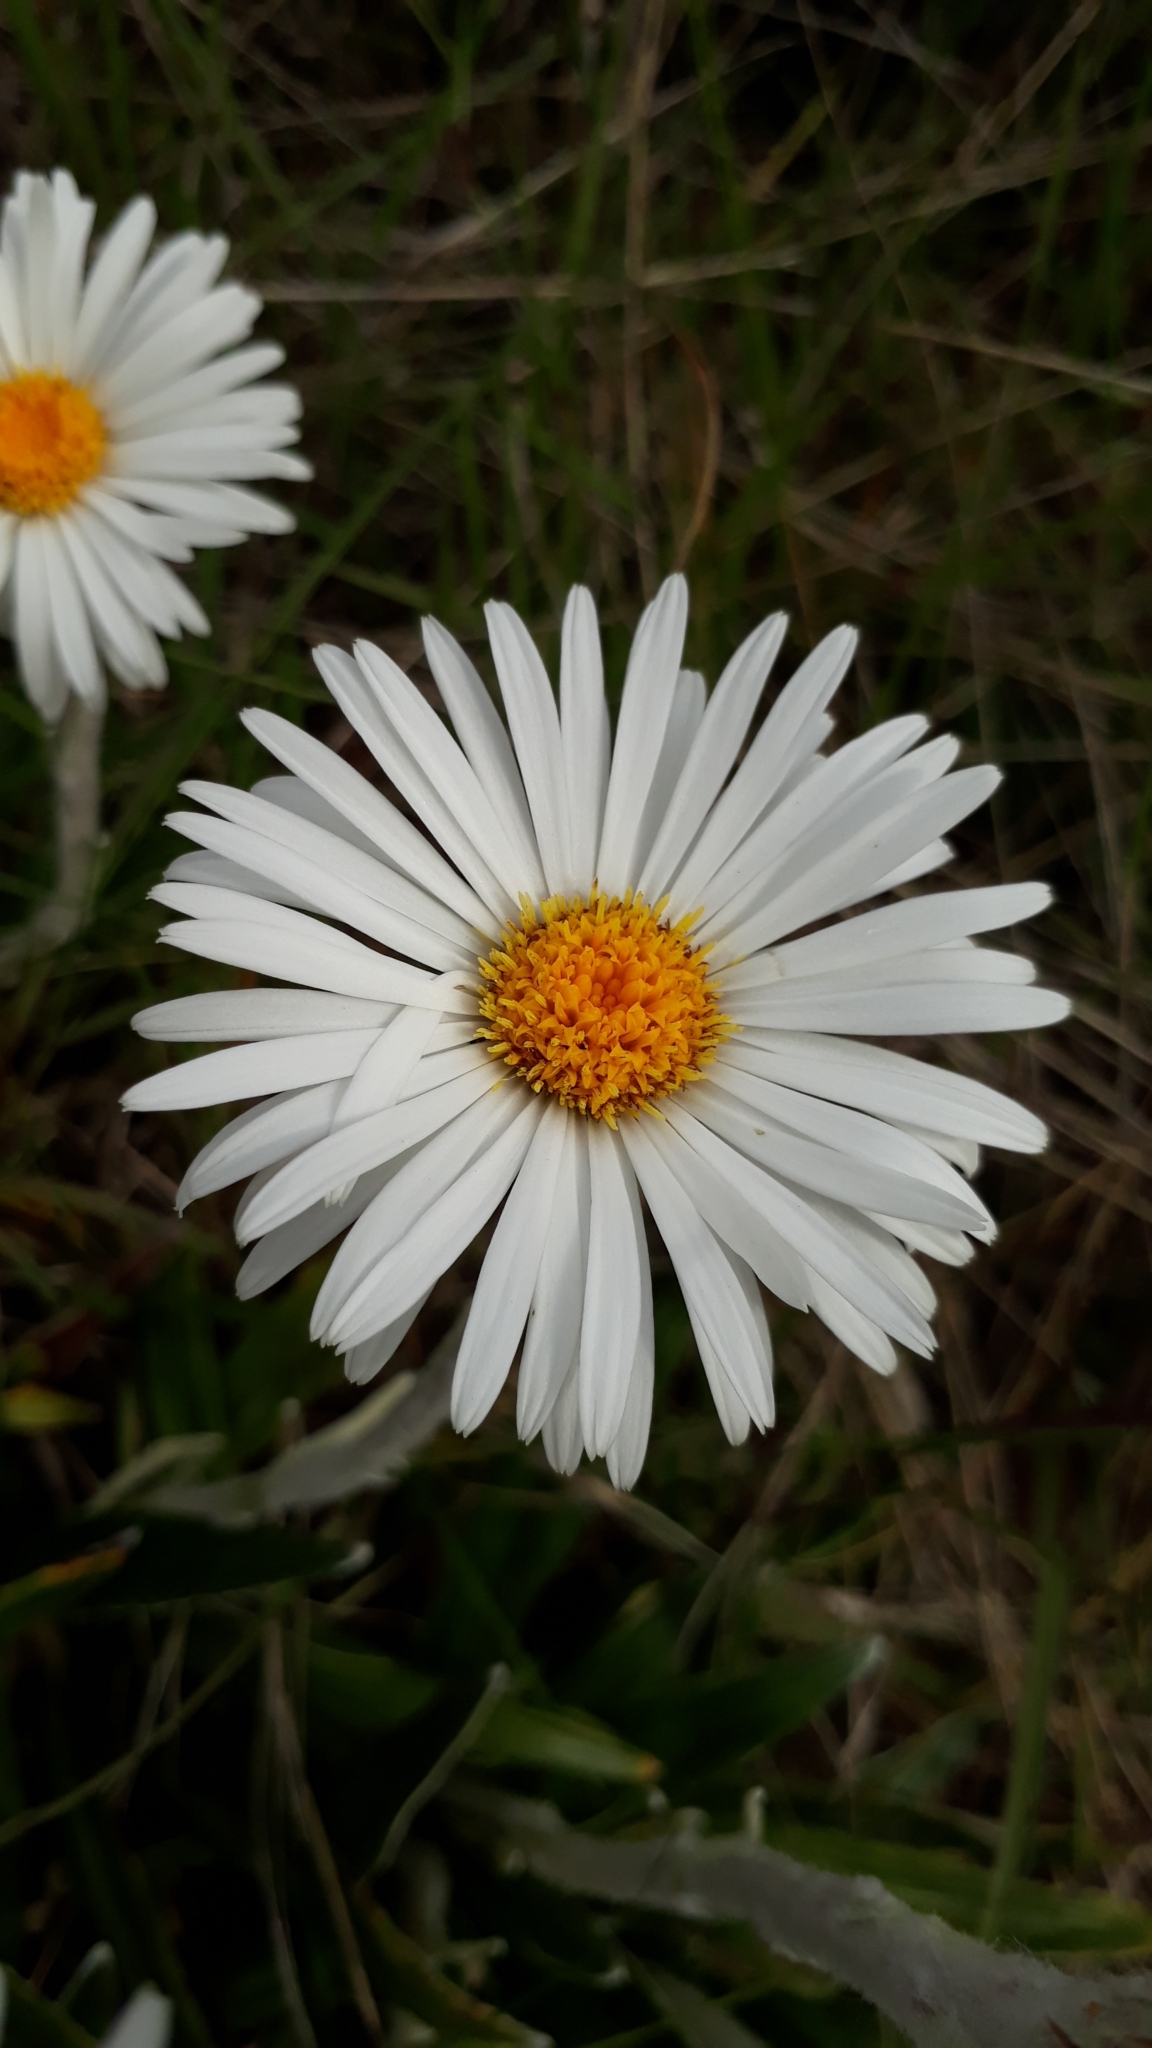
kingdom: Plantae
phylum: Tracheophyta
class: Magnoliopsida
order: Asterales
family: Asteraceae
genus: Celmisia
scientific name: Celmisia spectabilis
